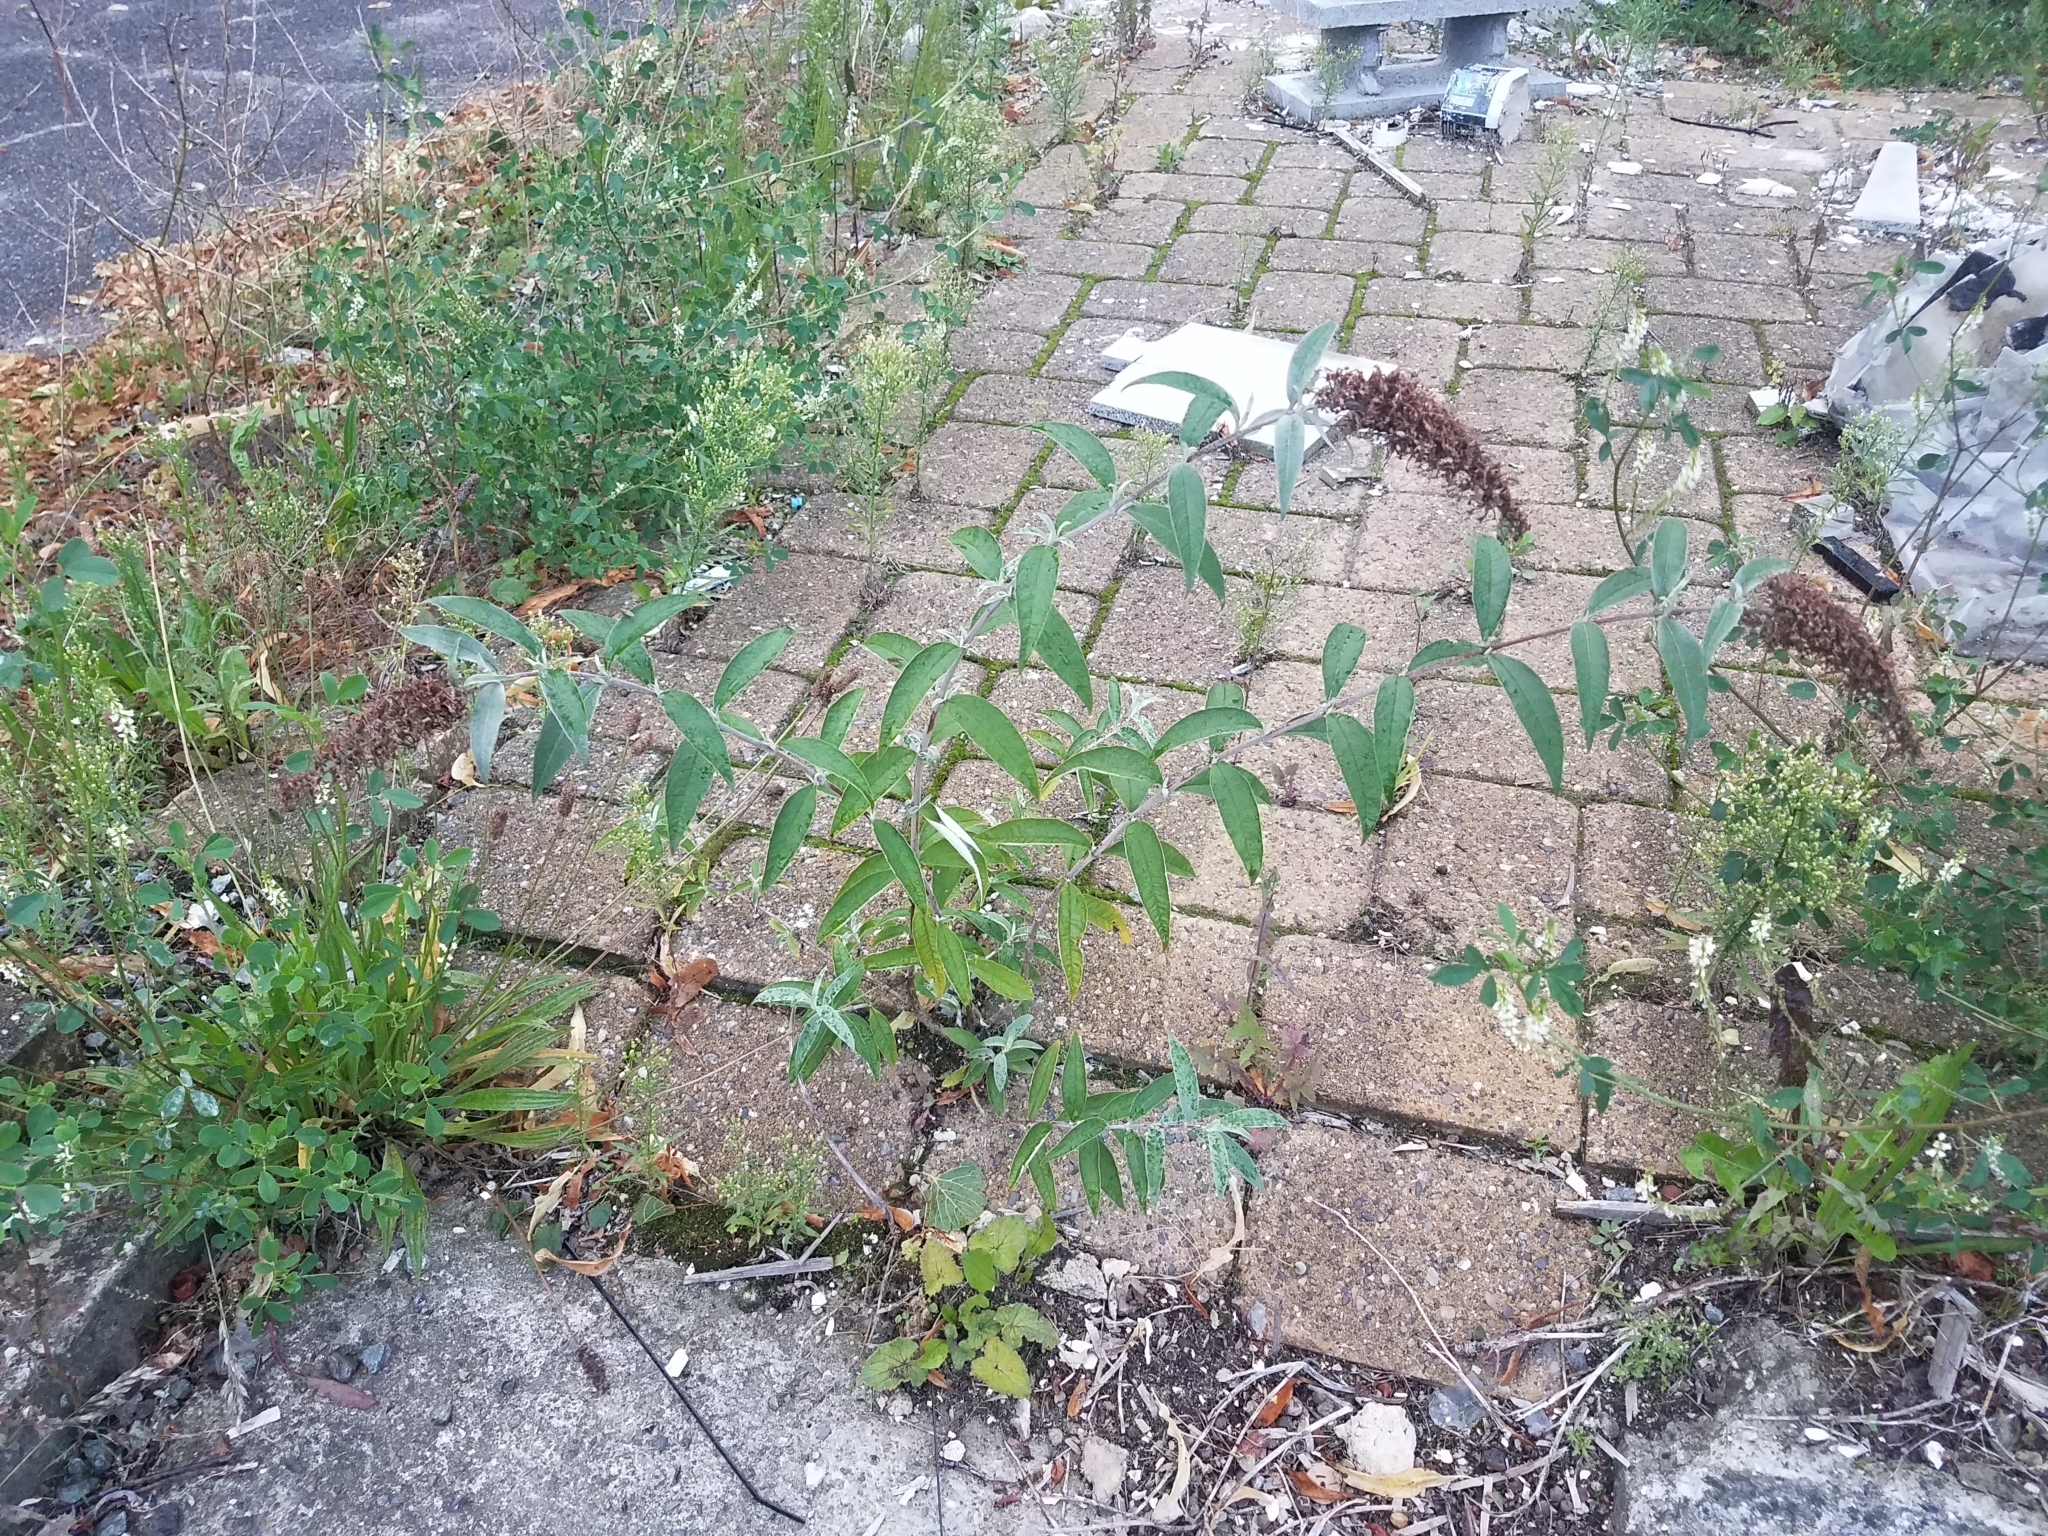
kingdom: Plantae
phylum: Tracheophyta
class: Magnoliopsida
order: Lamiales
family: Scrophulariaceae
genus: Buddleja
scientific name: Buddleja davidii
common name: Butterfly-bush
